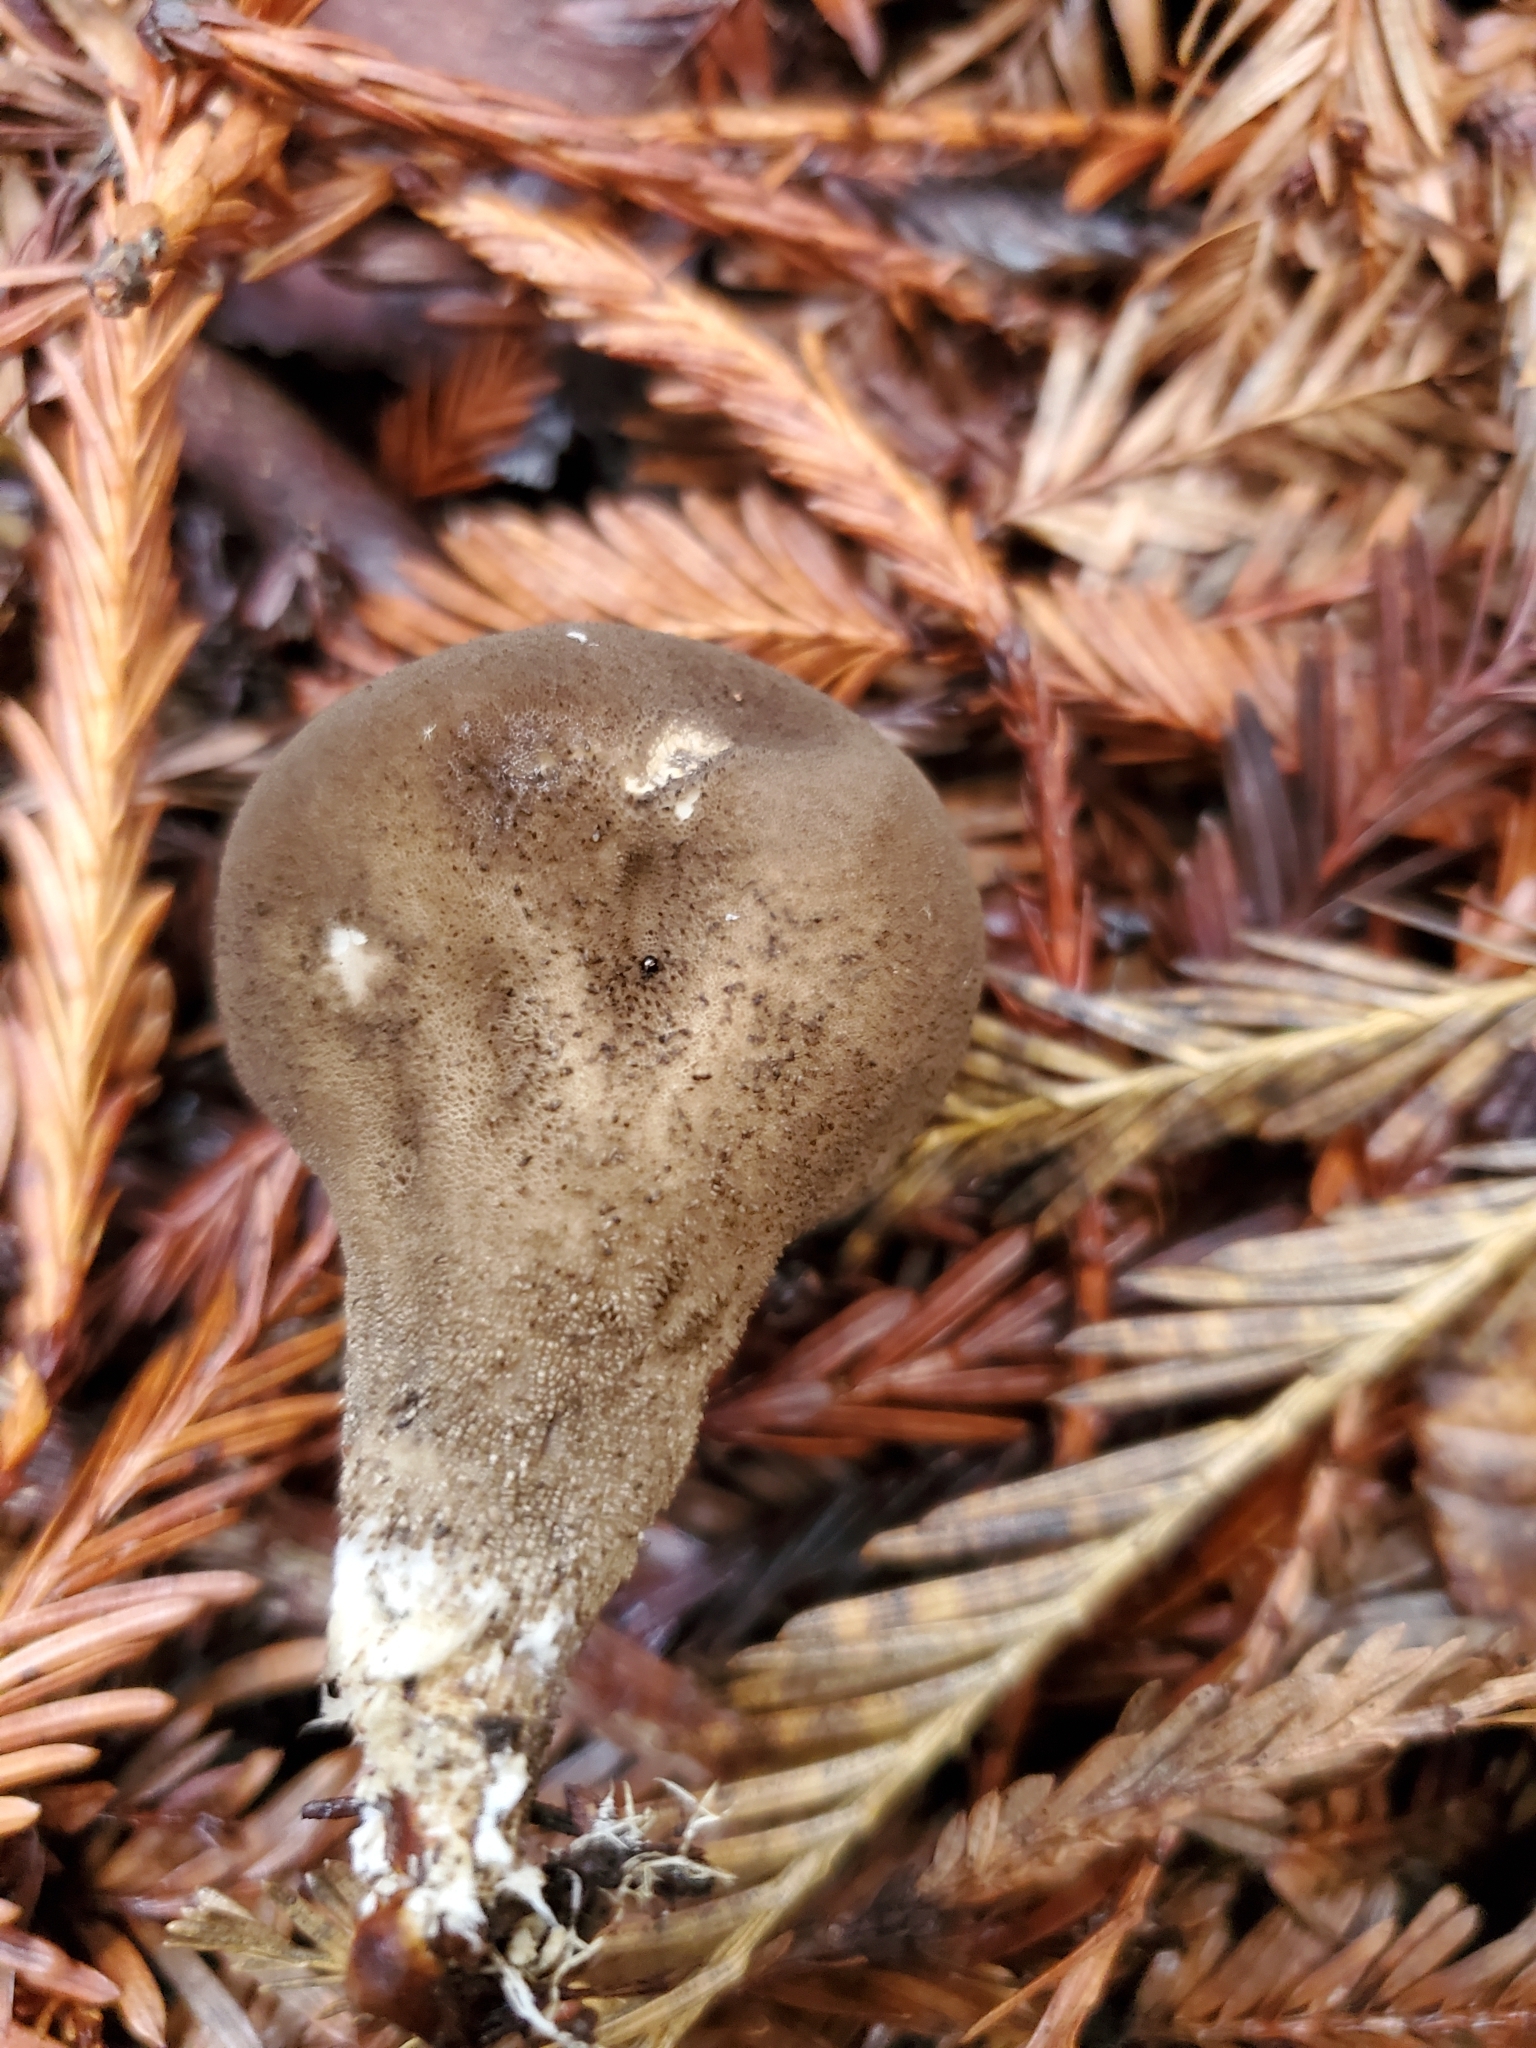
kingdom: Fungi
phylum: Basidiomycota
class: Agaricomycetes
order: Agaricales
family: Lycoperdaceae
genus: Lycoperdon
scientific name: Lycoperdon umbrinum
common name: Umber-brown puffball
